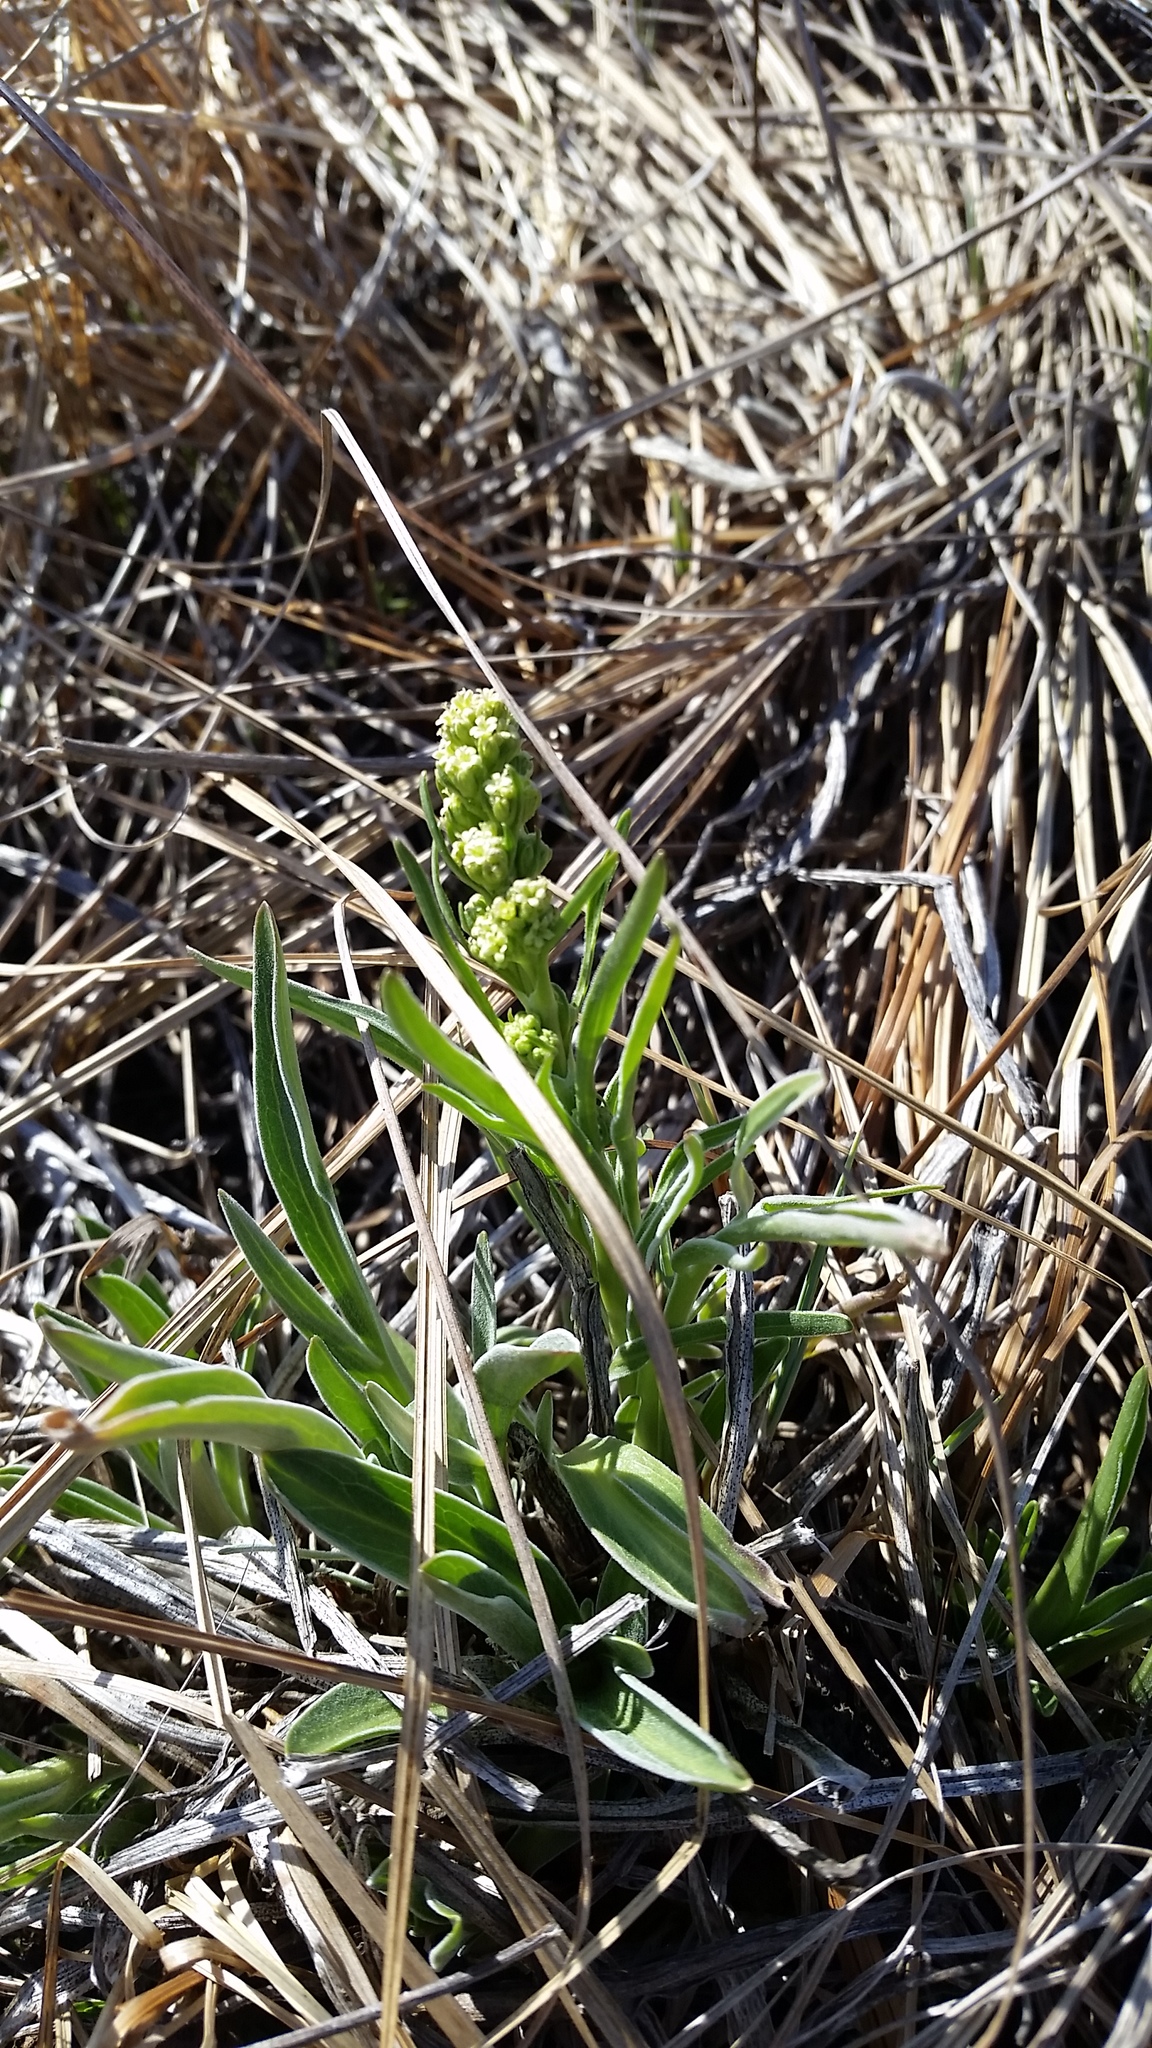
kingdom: Plantae
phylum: Tracheophyta
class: Magnoliopsida
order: Dipsacales
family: Caprifoliaceae
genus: Valeriana
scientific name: Valeriana edulis
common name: Taproot valerian
